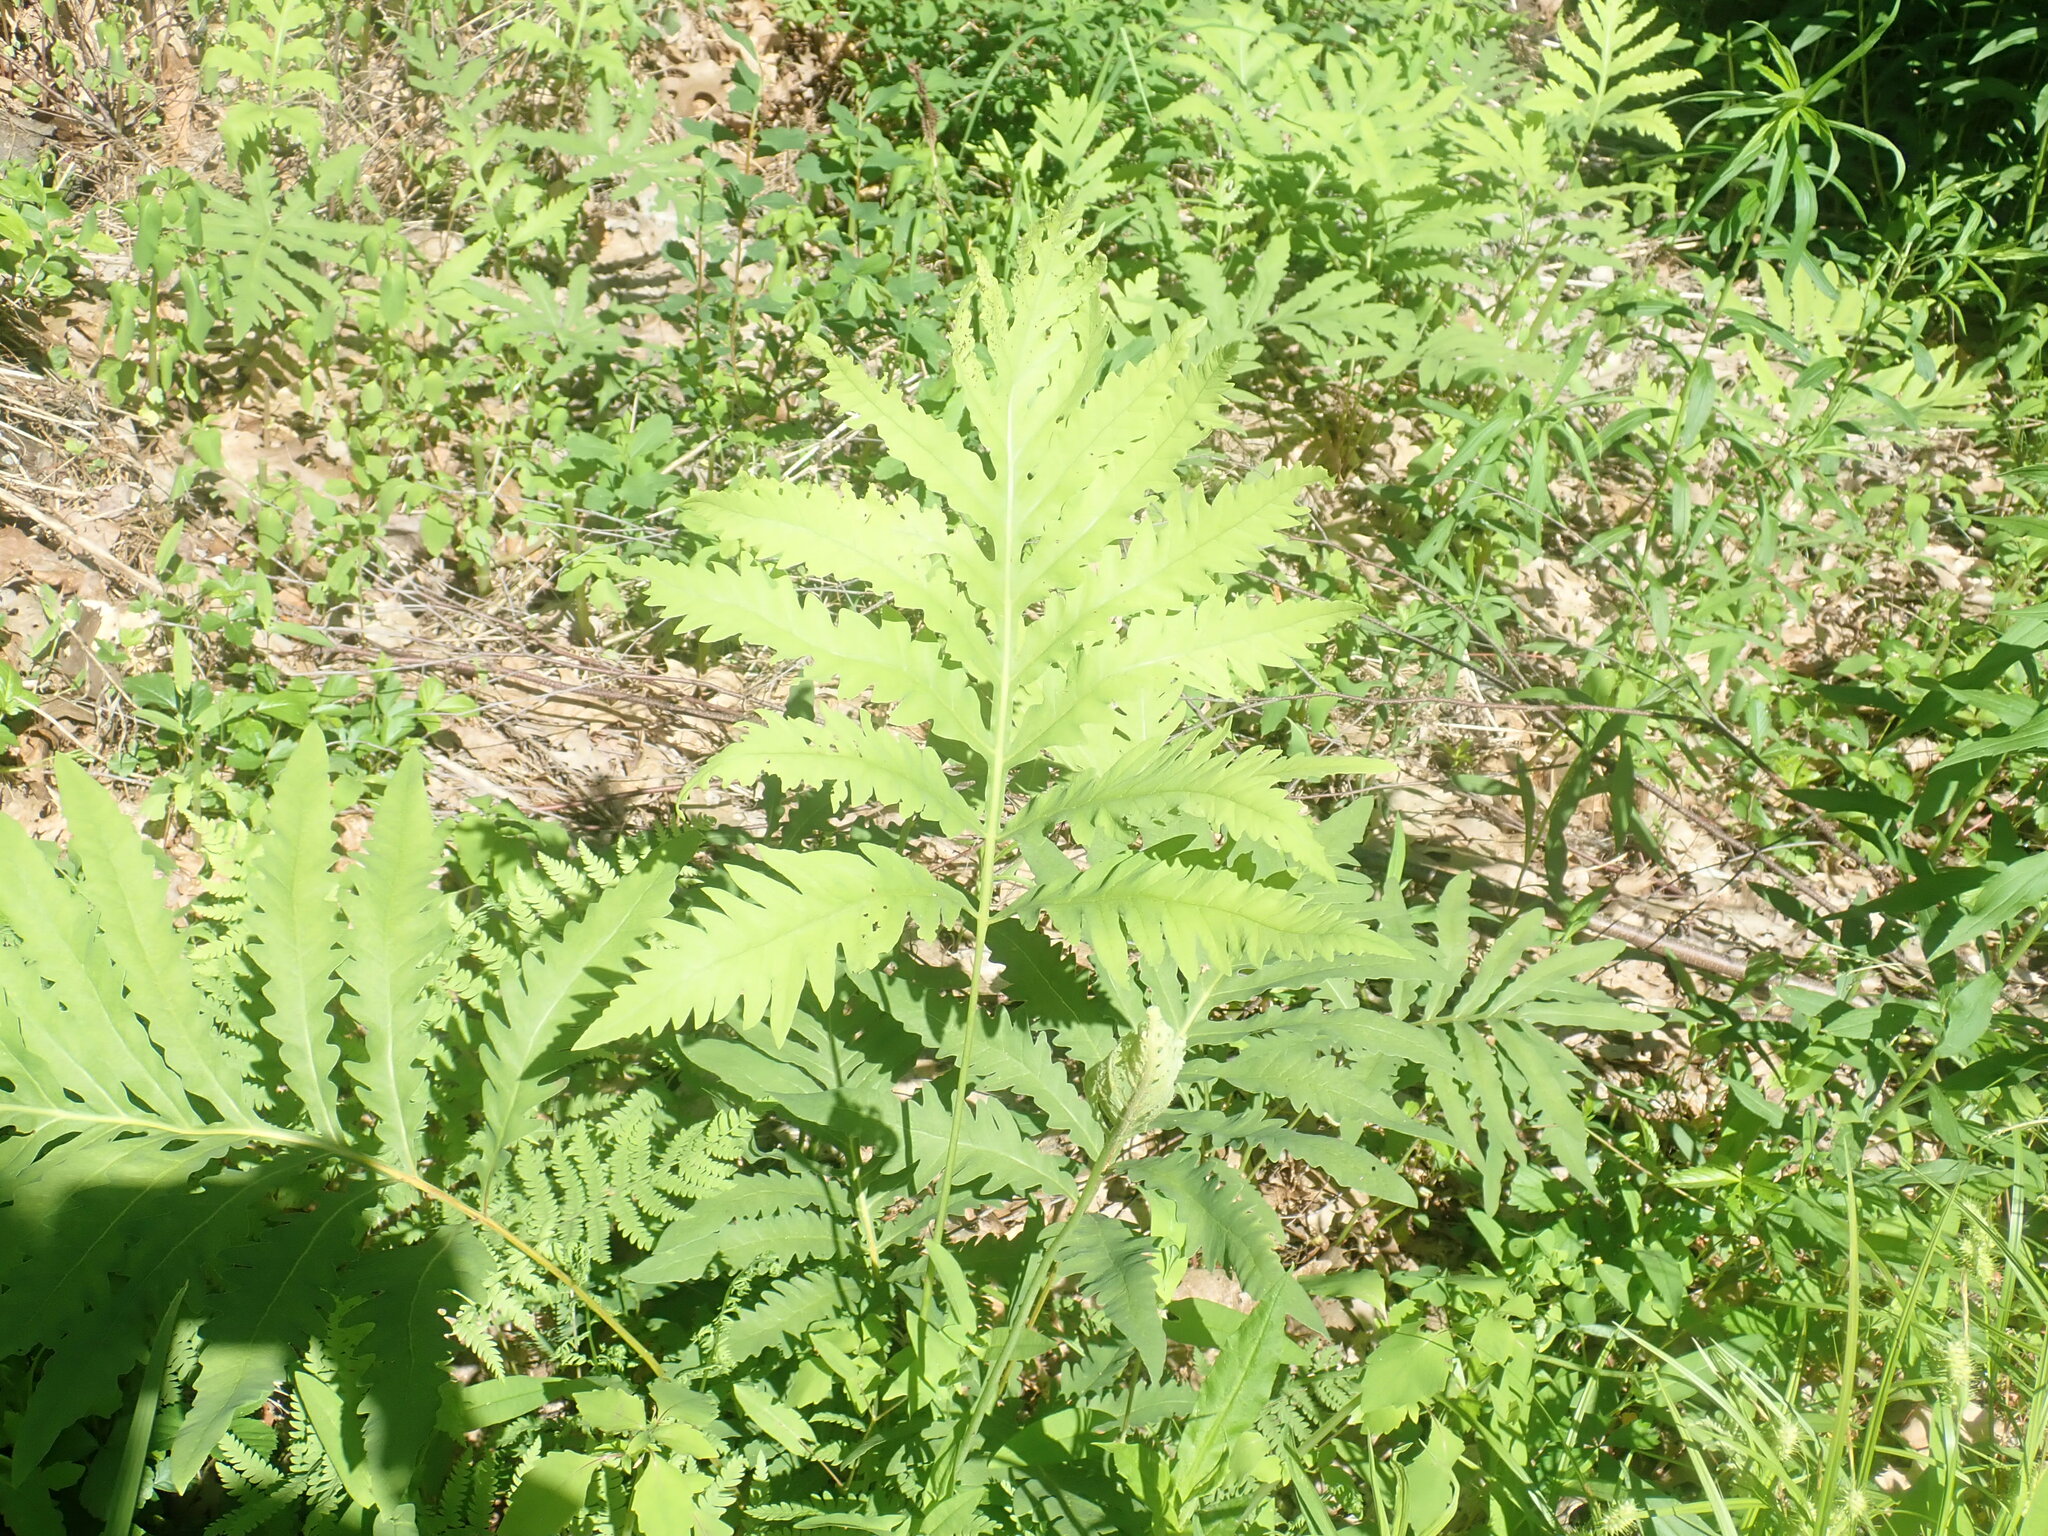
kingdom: Plantae
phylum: Tracheophyta
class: Polypodiopsida
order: Polypodiales
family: Onocleaceae
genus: Onoclea
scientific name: Onoclea sensibilis
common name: Sensitive fern
